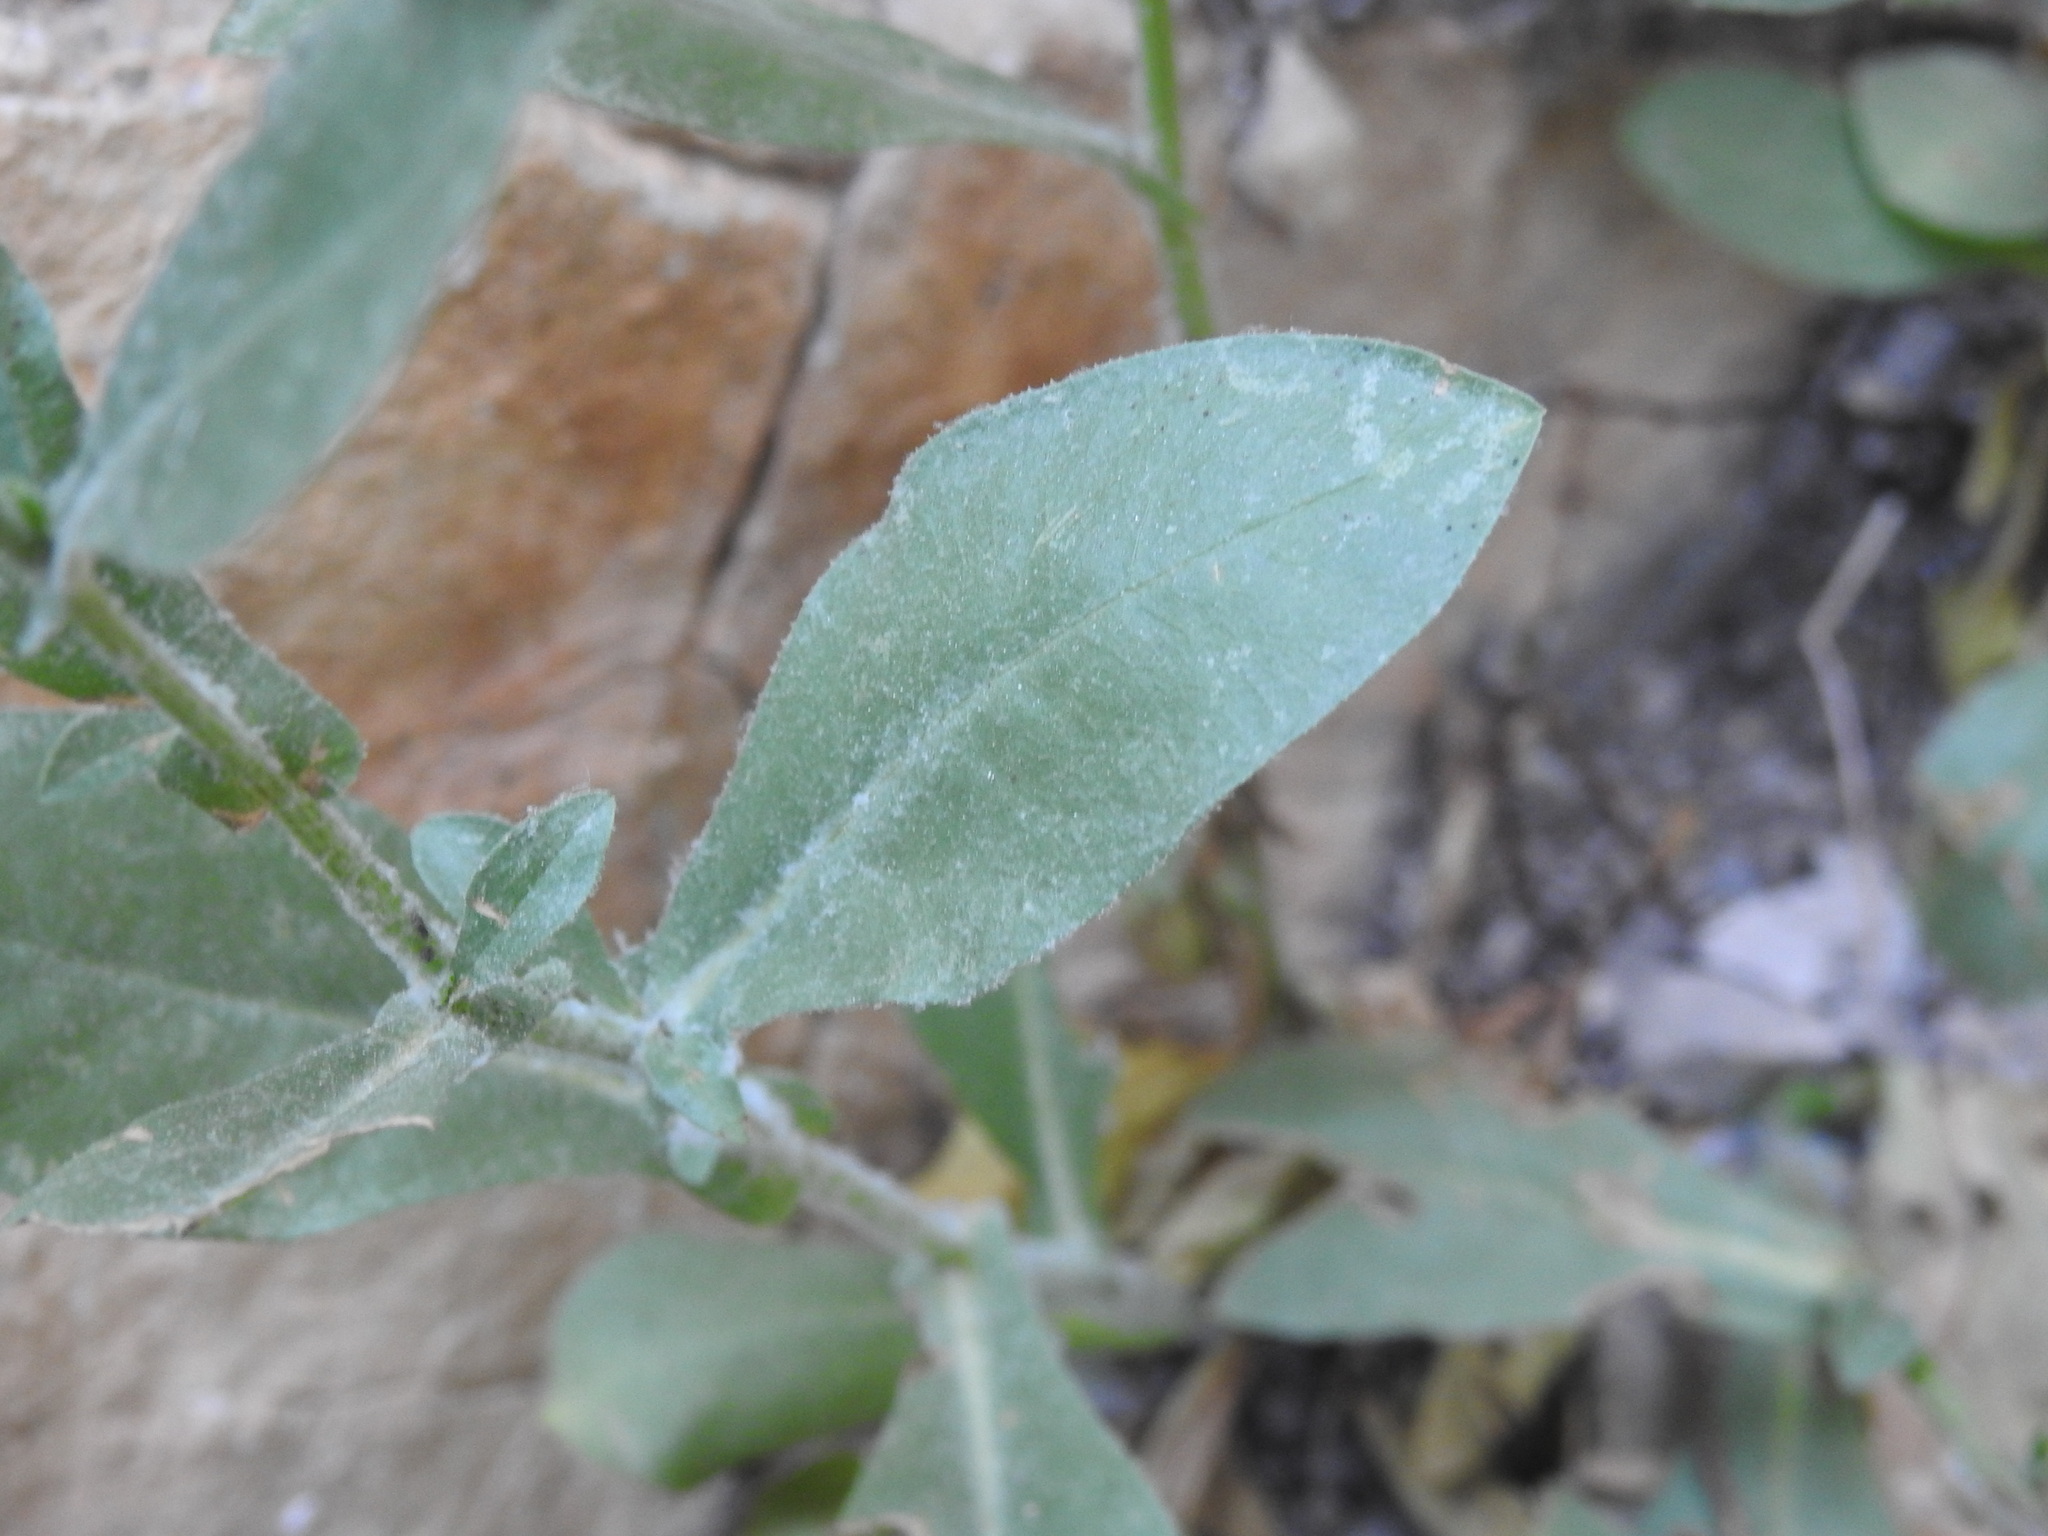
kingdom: Plantae
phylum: Tracheophyta
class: Magnoliopsida
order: Caryophyllales
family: Plumbaginaceae
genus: Plumbago
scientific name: Plumbago europaea
